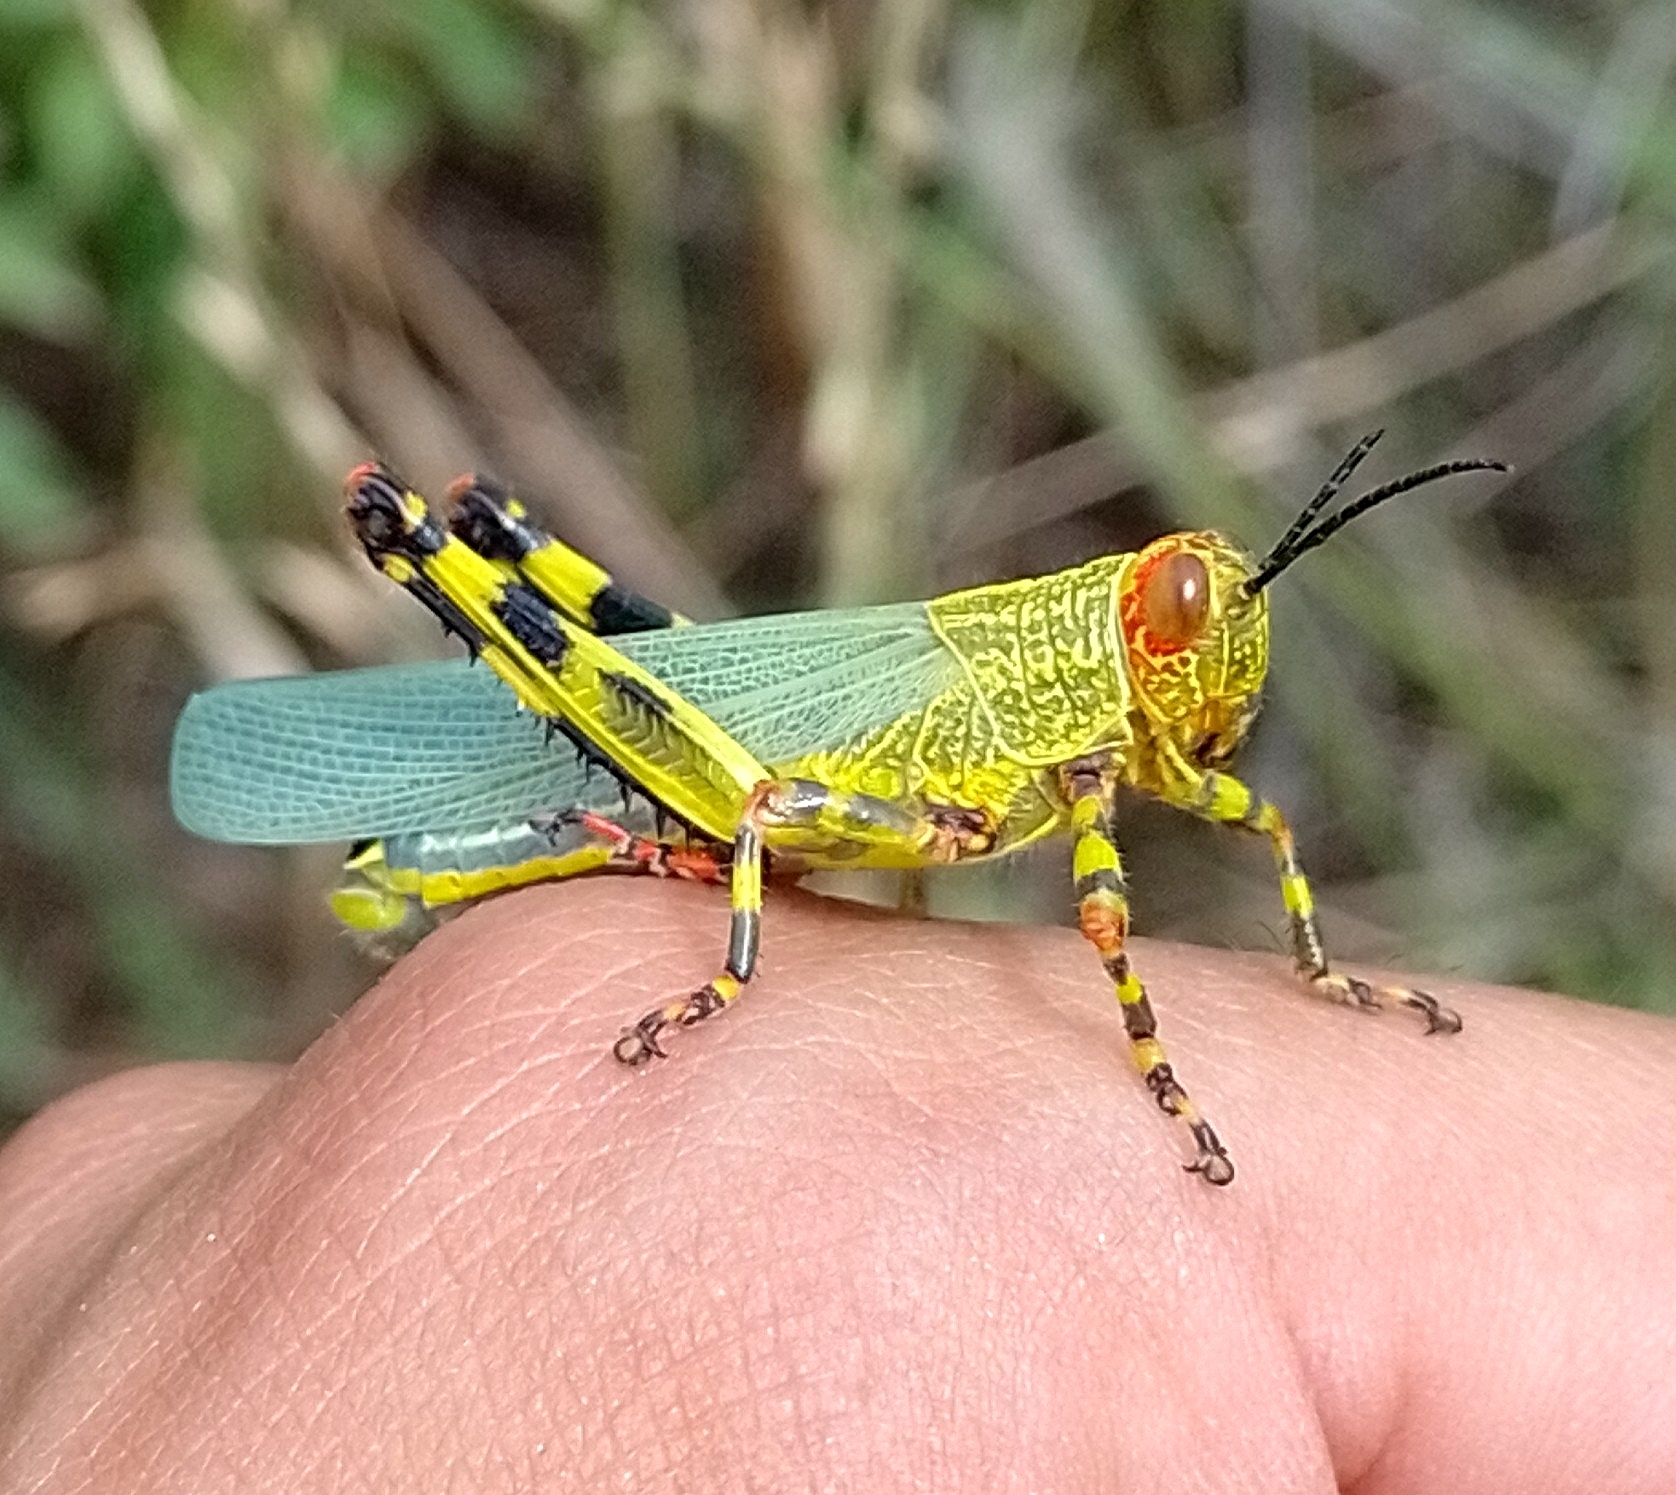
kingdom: Animalia
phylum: Arthropoda
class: Insecta
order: Orthoptera
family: Romaleidae
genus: Zoniopoda
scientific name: Zoniopoda tarsata
